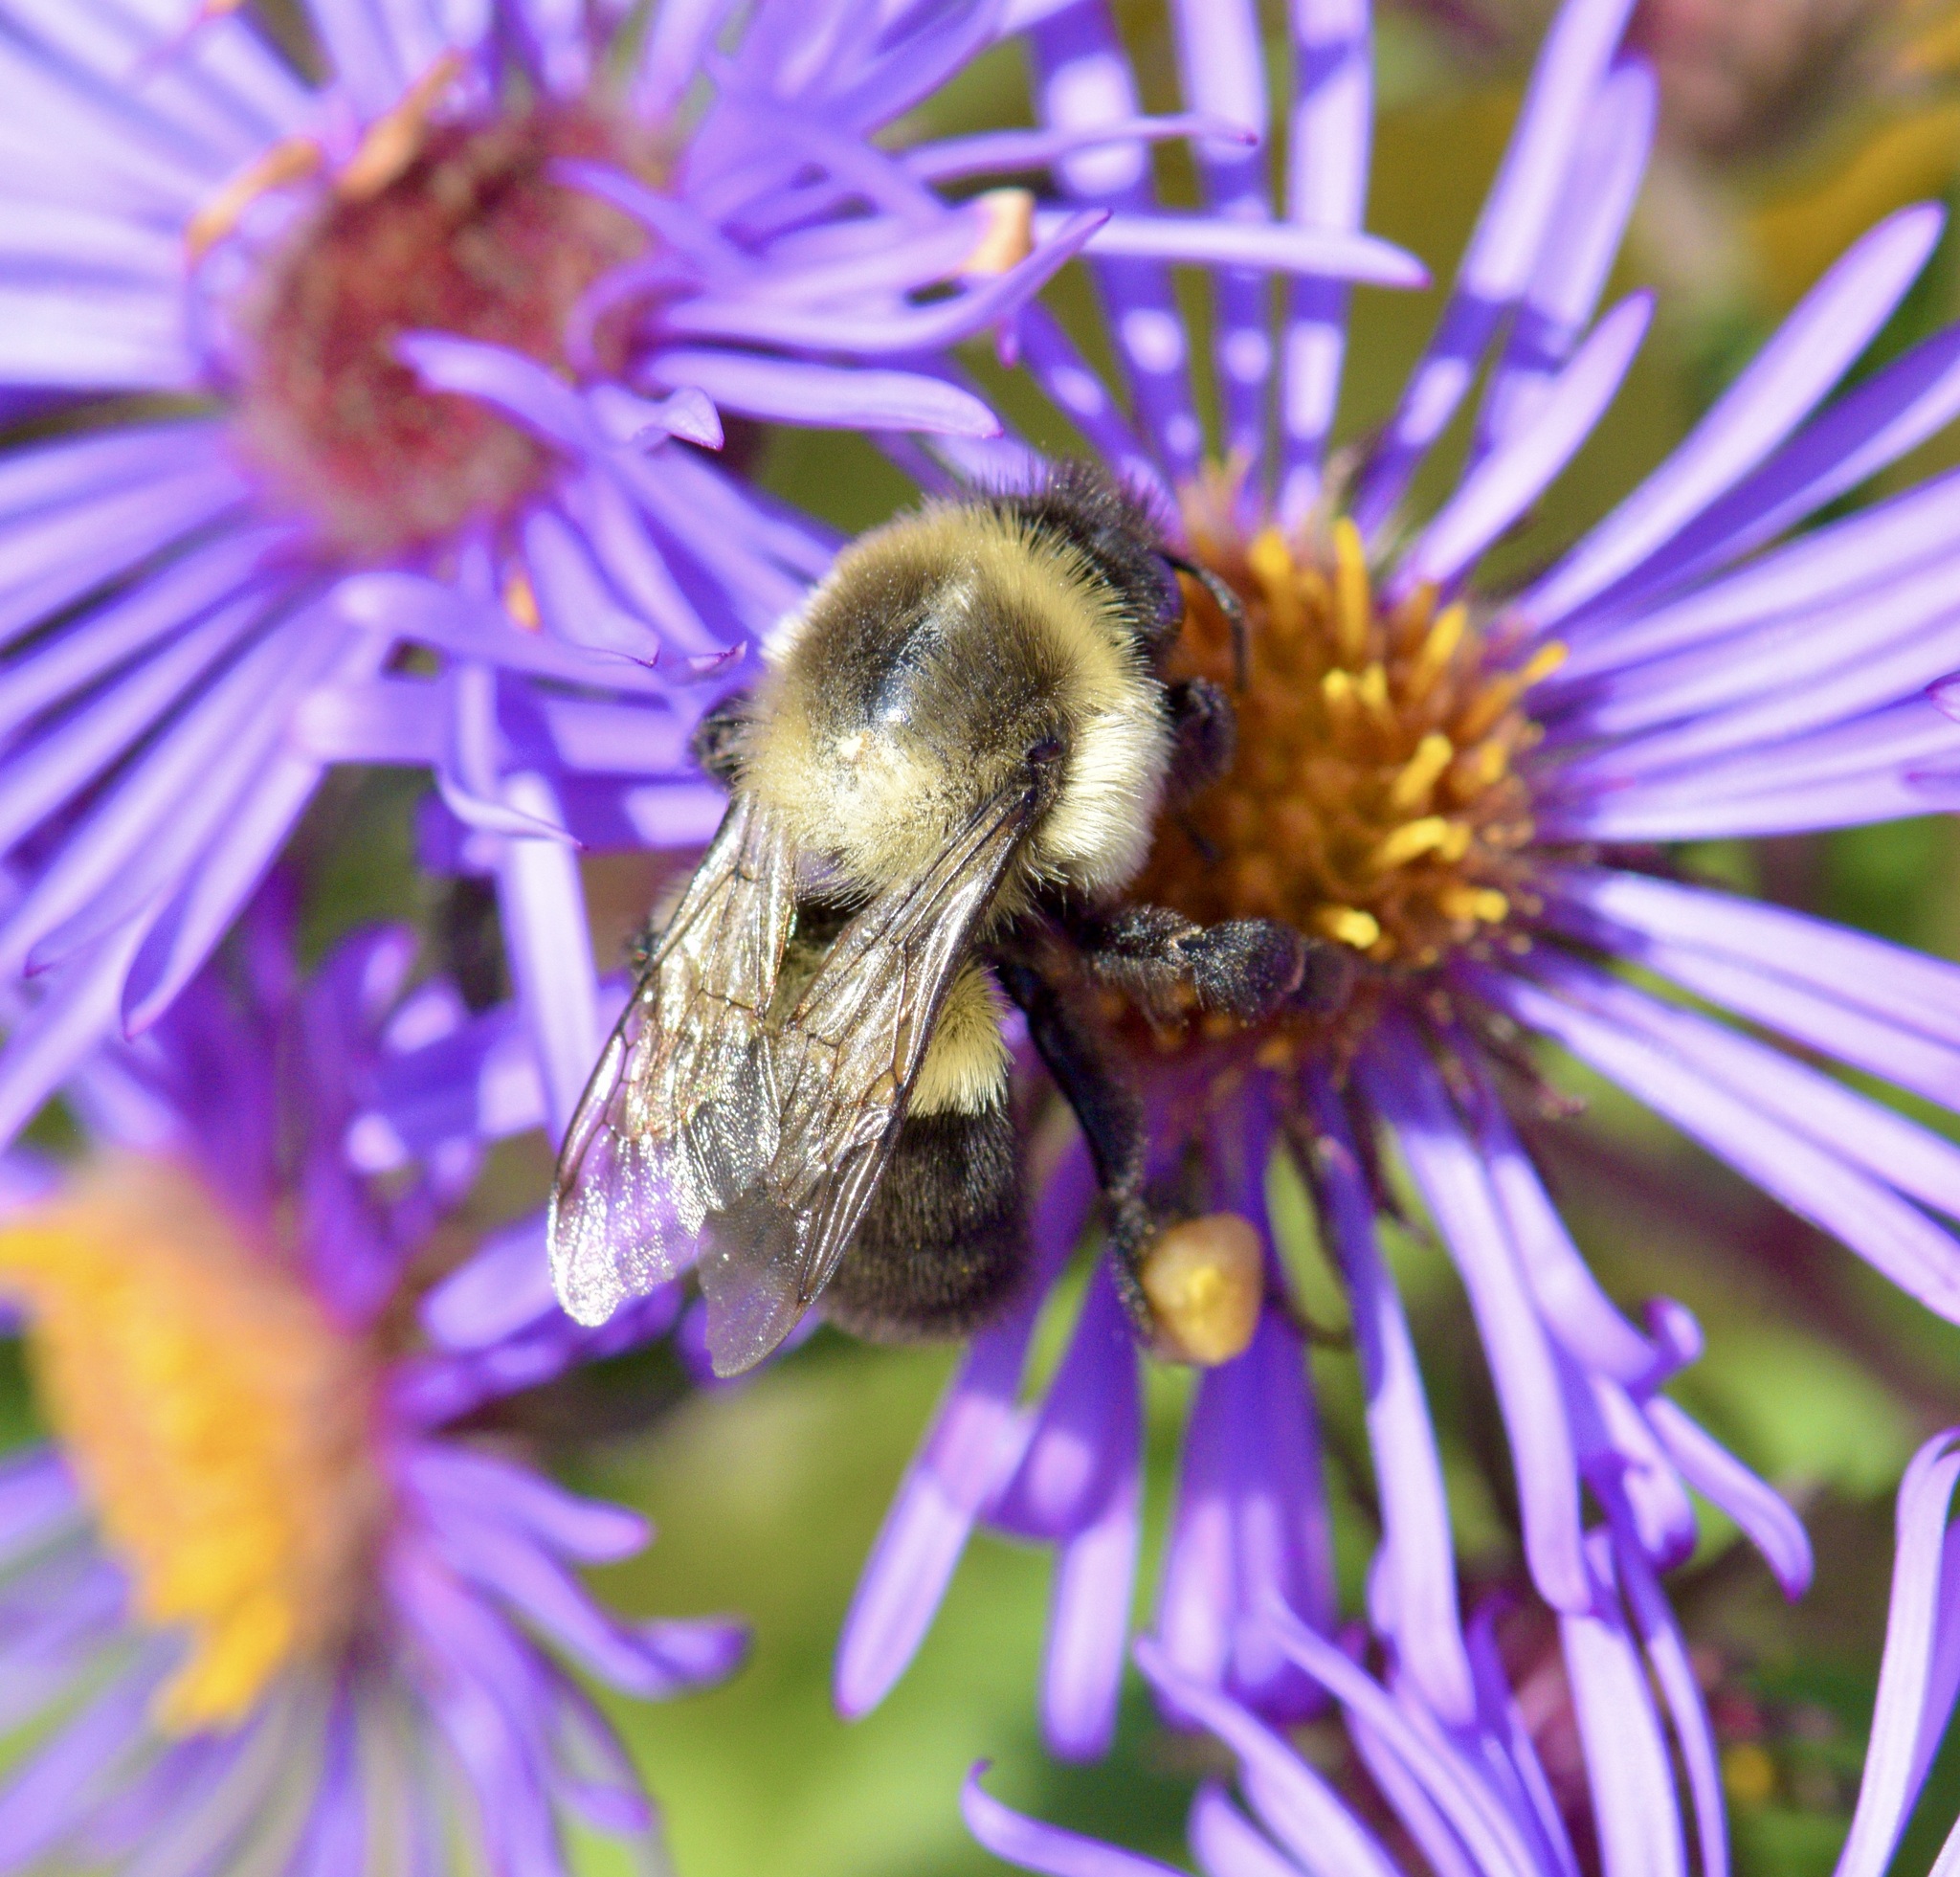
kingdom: Animalia
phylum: Arthropoda
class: Insecta
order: Hymenoptera
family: Apidae
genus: Bombus
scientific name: Bombus impatiens
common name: Common eastern bumble bee
